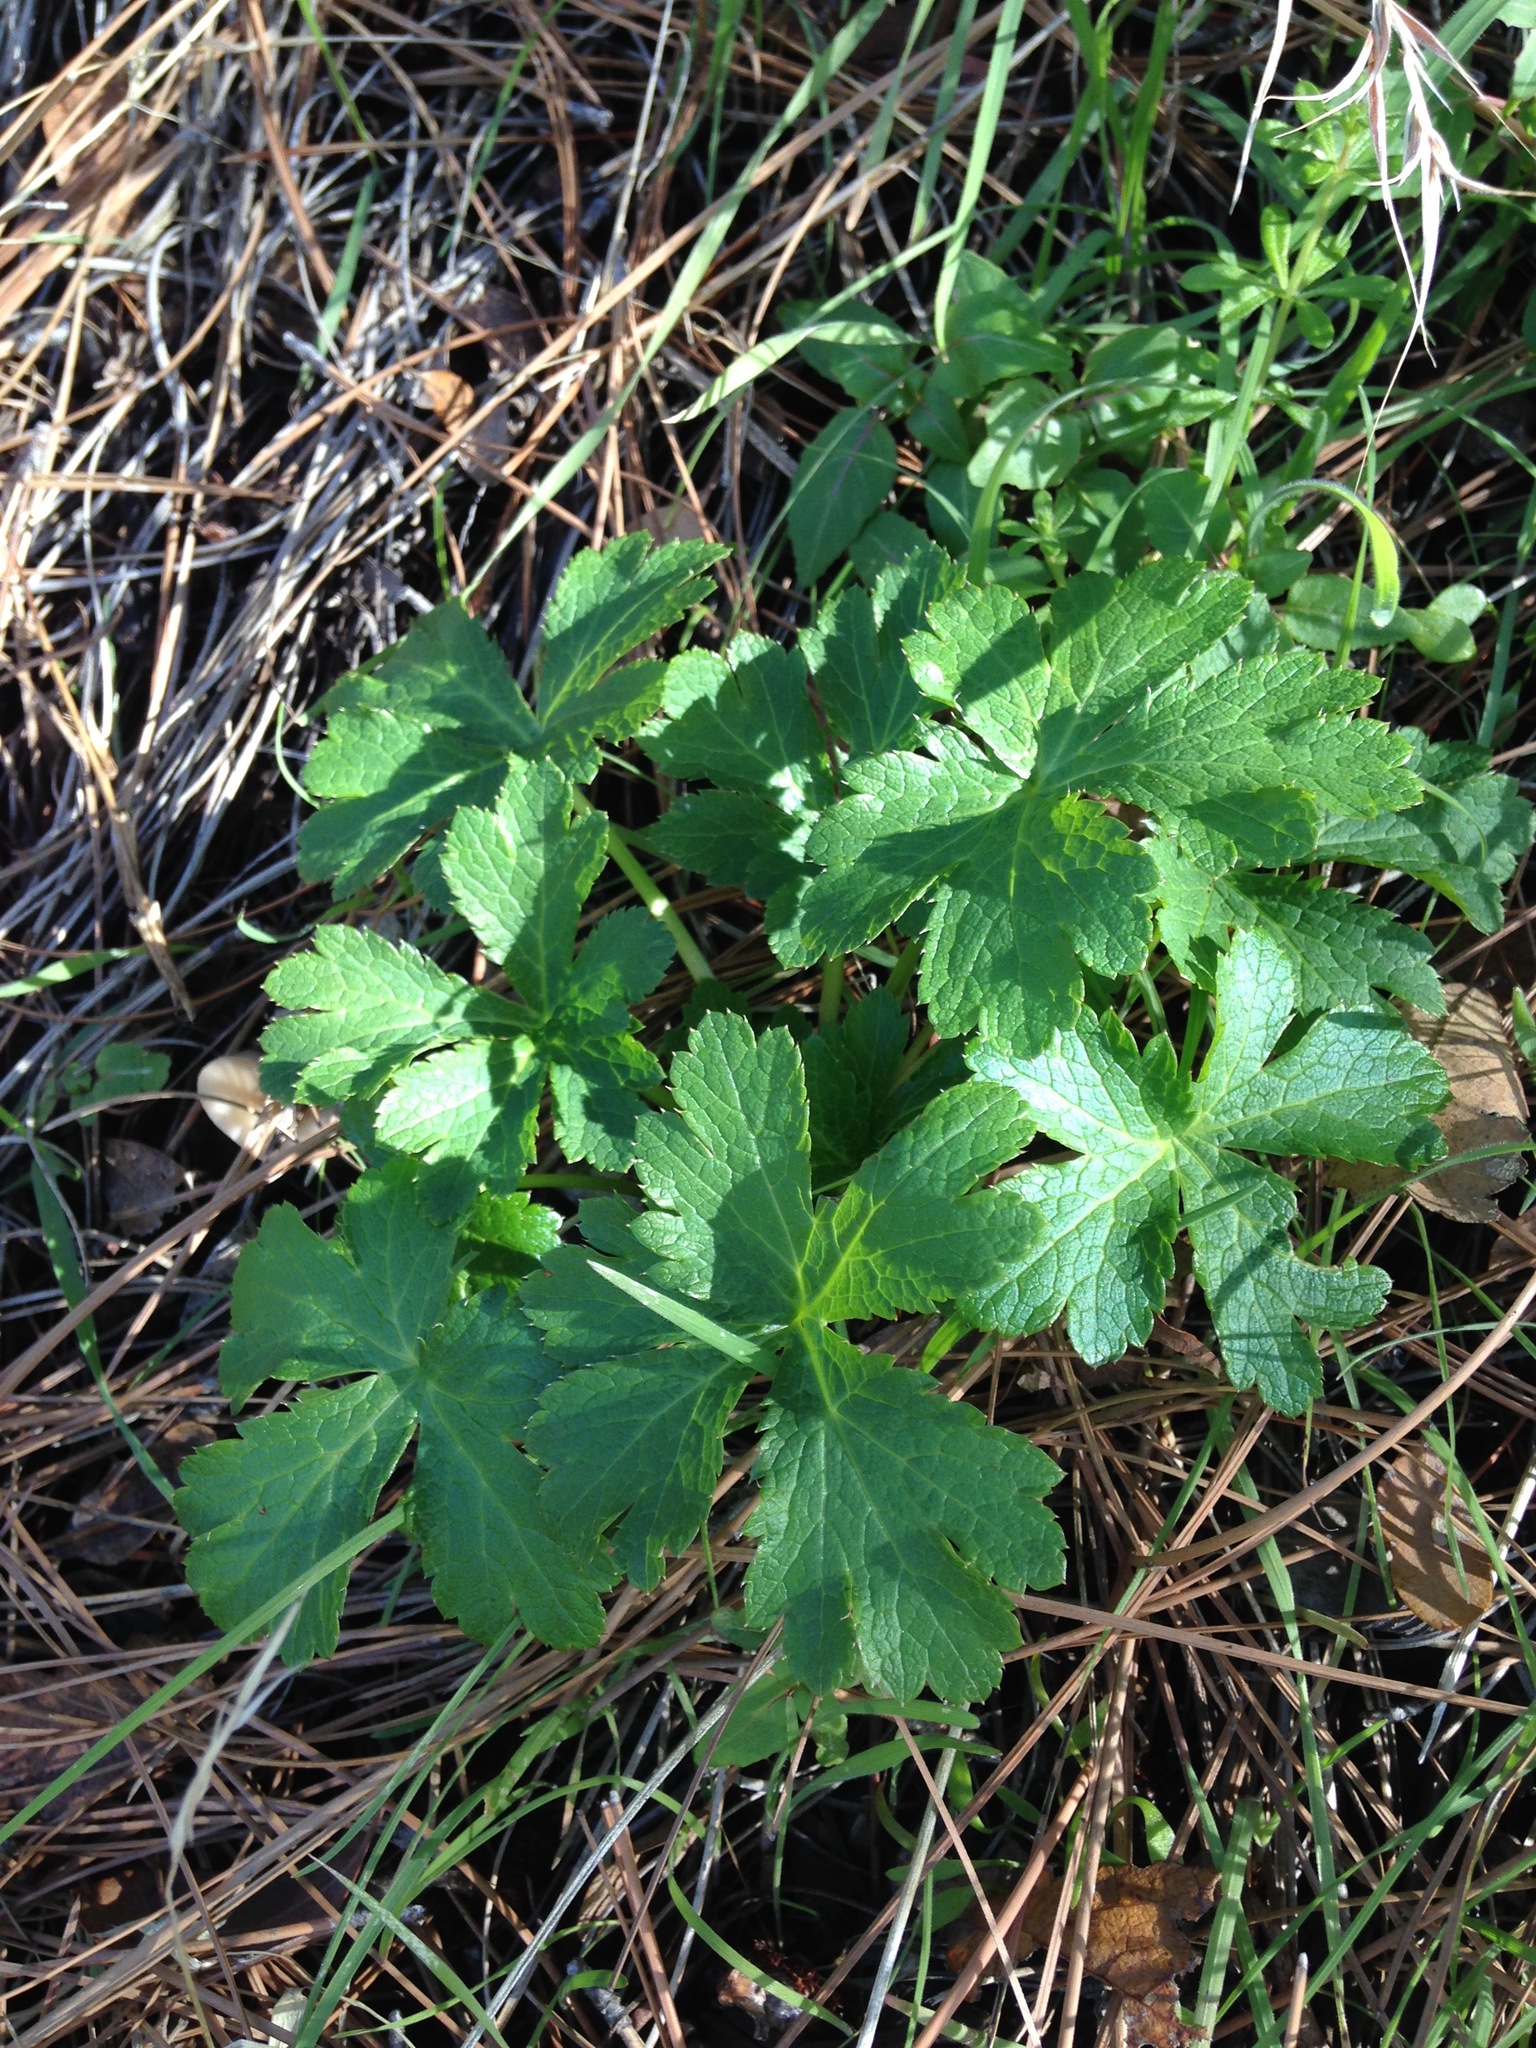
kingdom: Plantae
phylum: Tracheophyta
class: Magnoliopsida
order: Apiales
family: Apiaceae
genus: Sanicula
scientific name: Sanicula crassicaulis
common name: Western snakeroot
